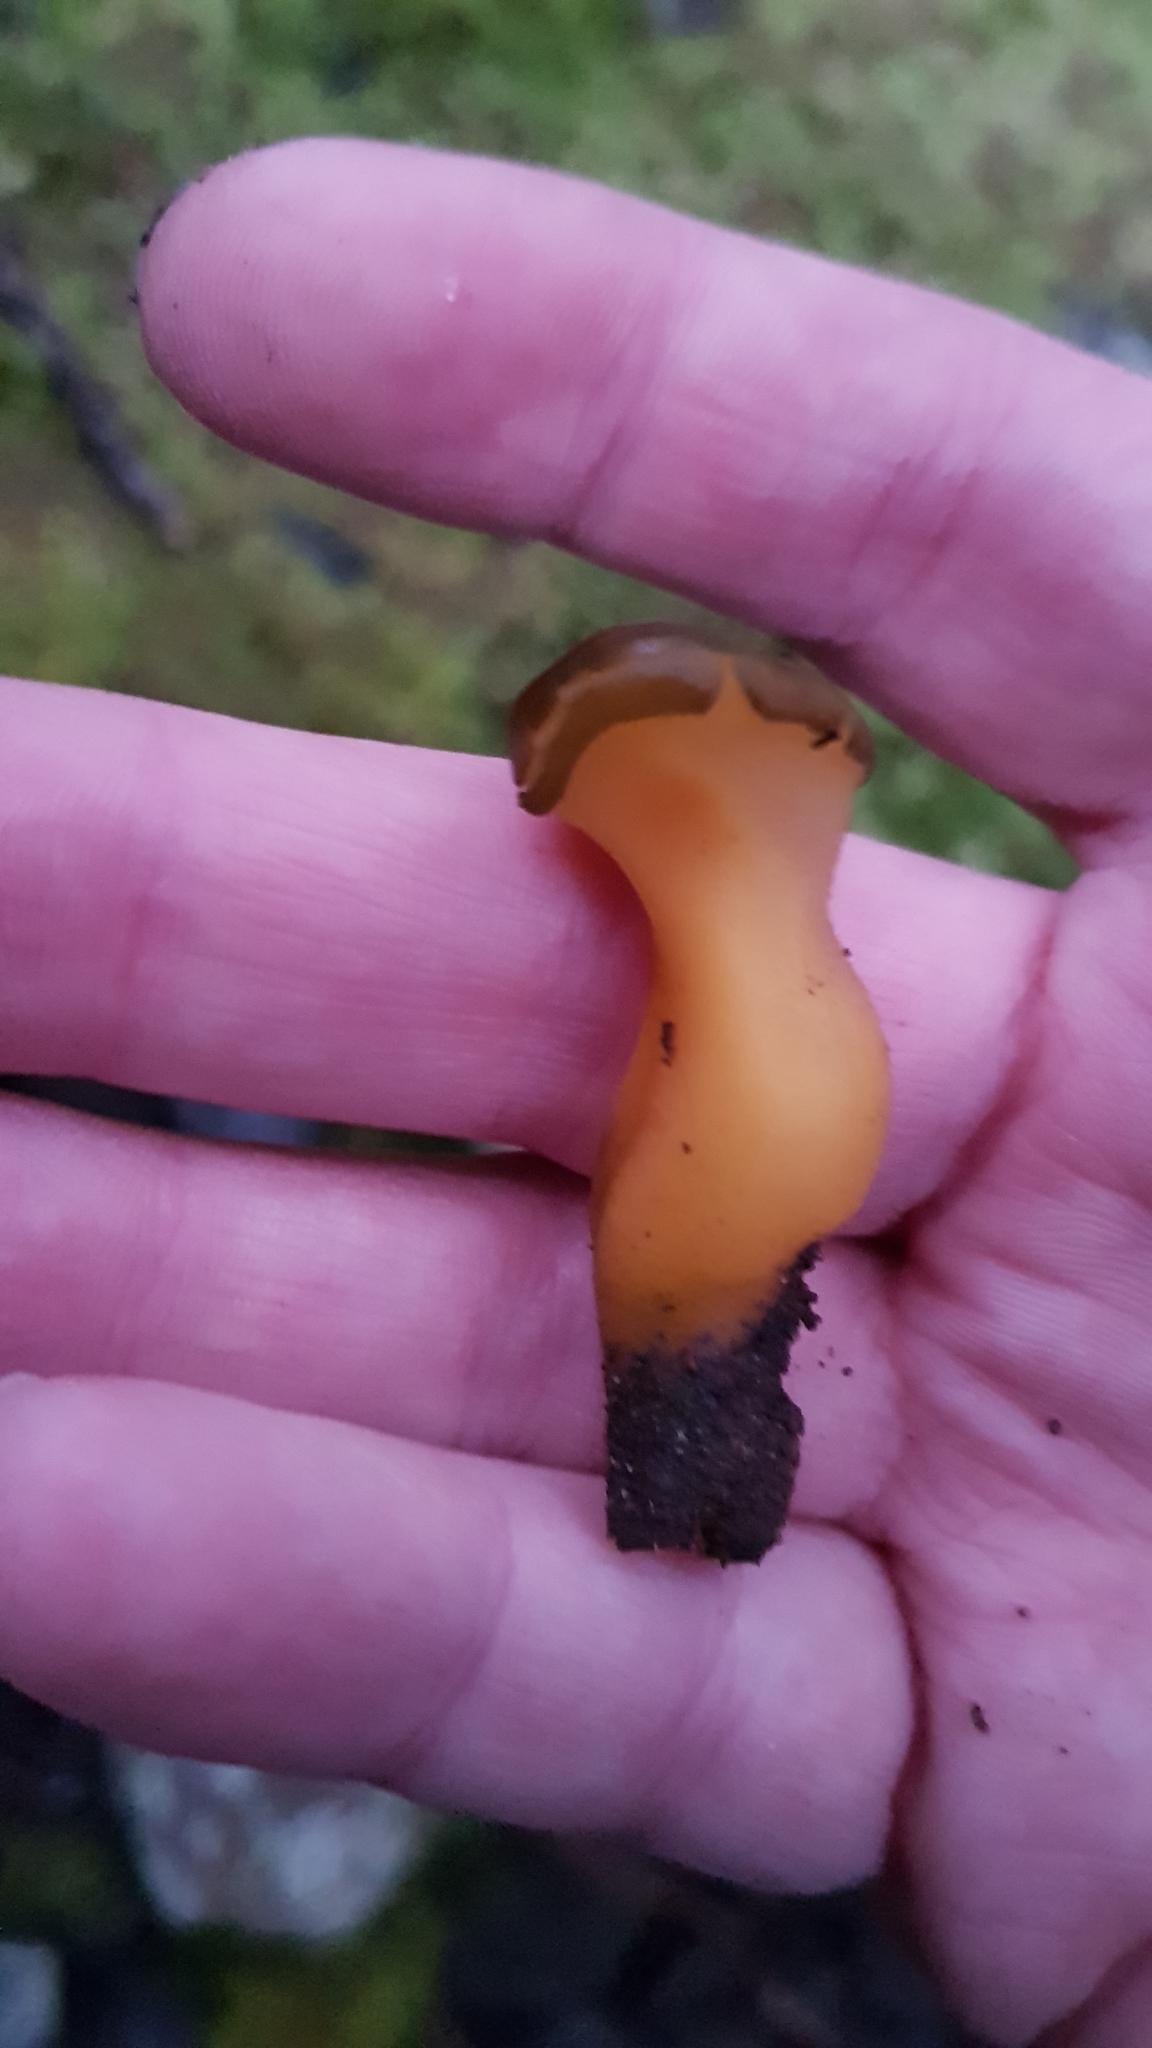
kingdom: Fungi
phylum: Ascomycota
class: Leotiomycetes
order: Leotiales
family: Leotiaceae
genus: Leotia
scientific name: Leotia lubrica
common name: Jellybaby
